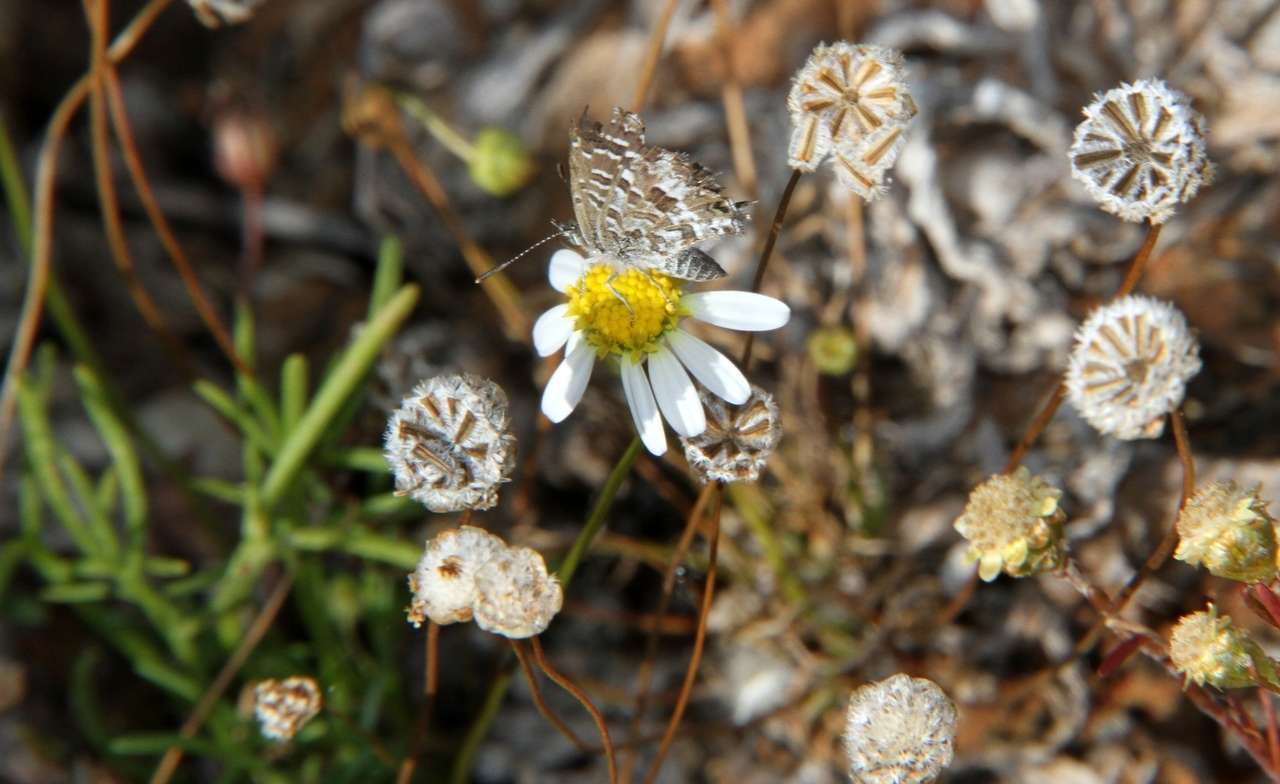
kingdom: Plantae
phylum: Tracheophyta
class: Magnoliopsida
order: Asterales
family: Asteraceae
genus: Brachyscome
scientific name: Brachyscome lineariloba
